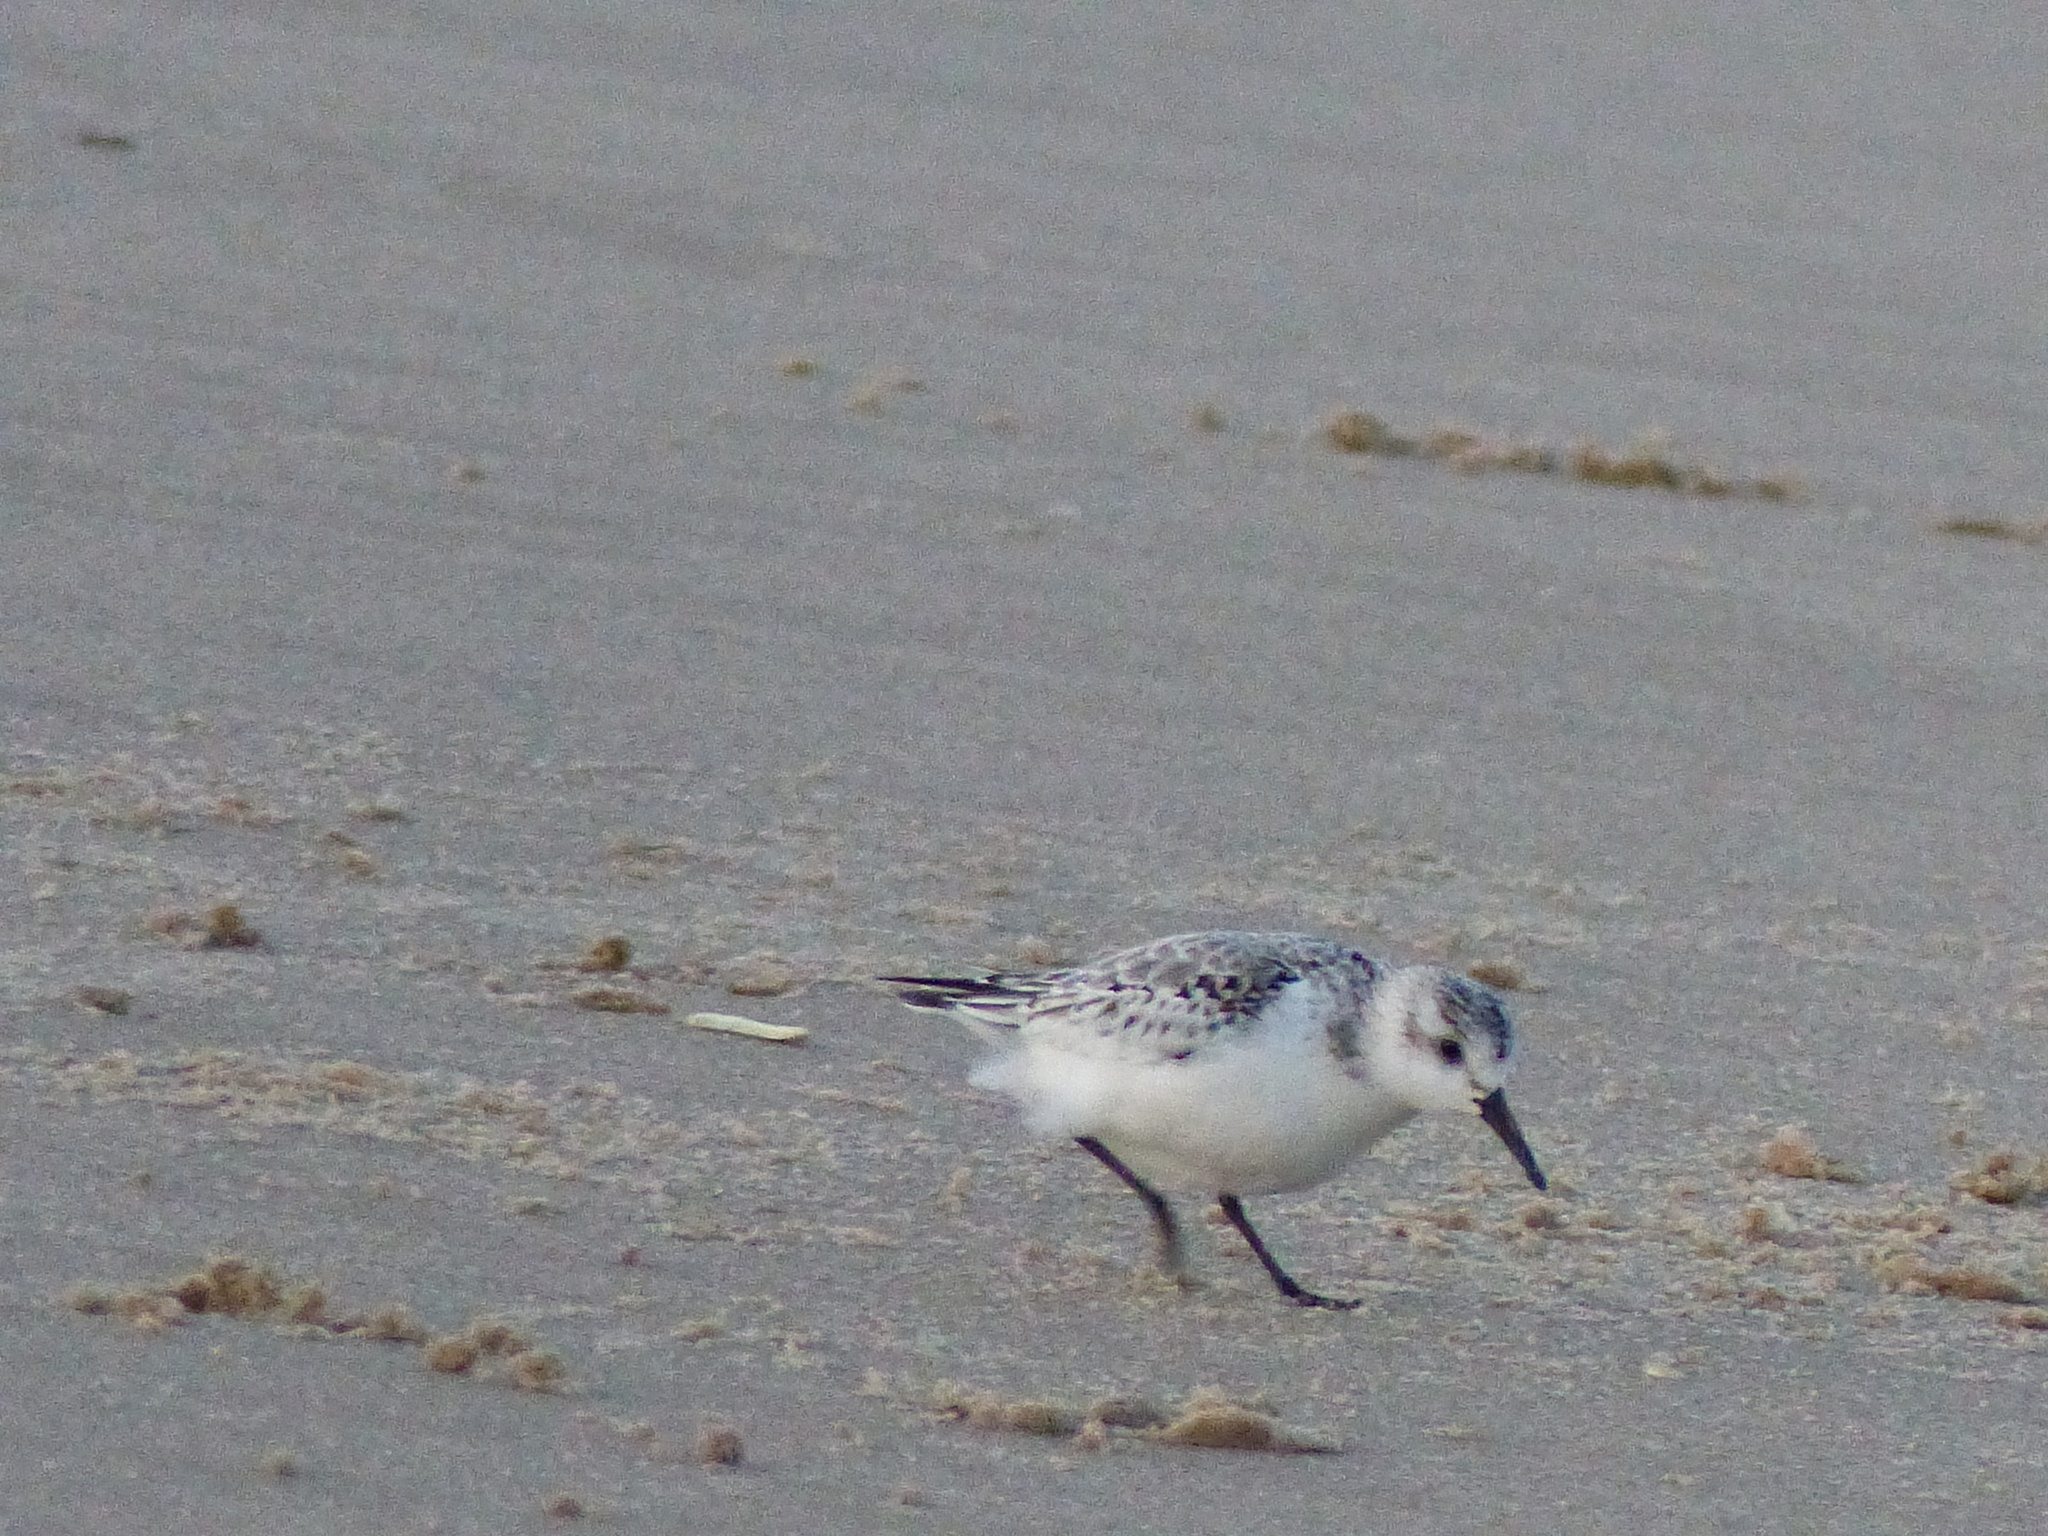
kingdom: Animalia
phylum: Chordata
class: Aves
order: Charadriiformes
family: Scolopacidae
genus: Calidris
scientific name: Calidris alba
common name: Sanderling
